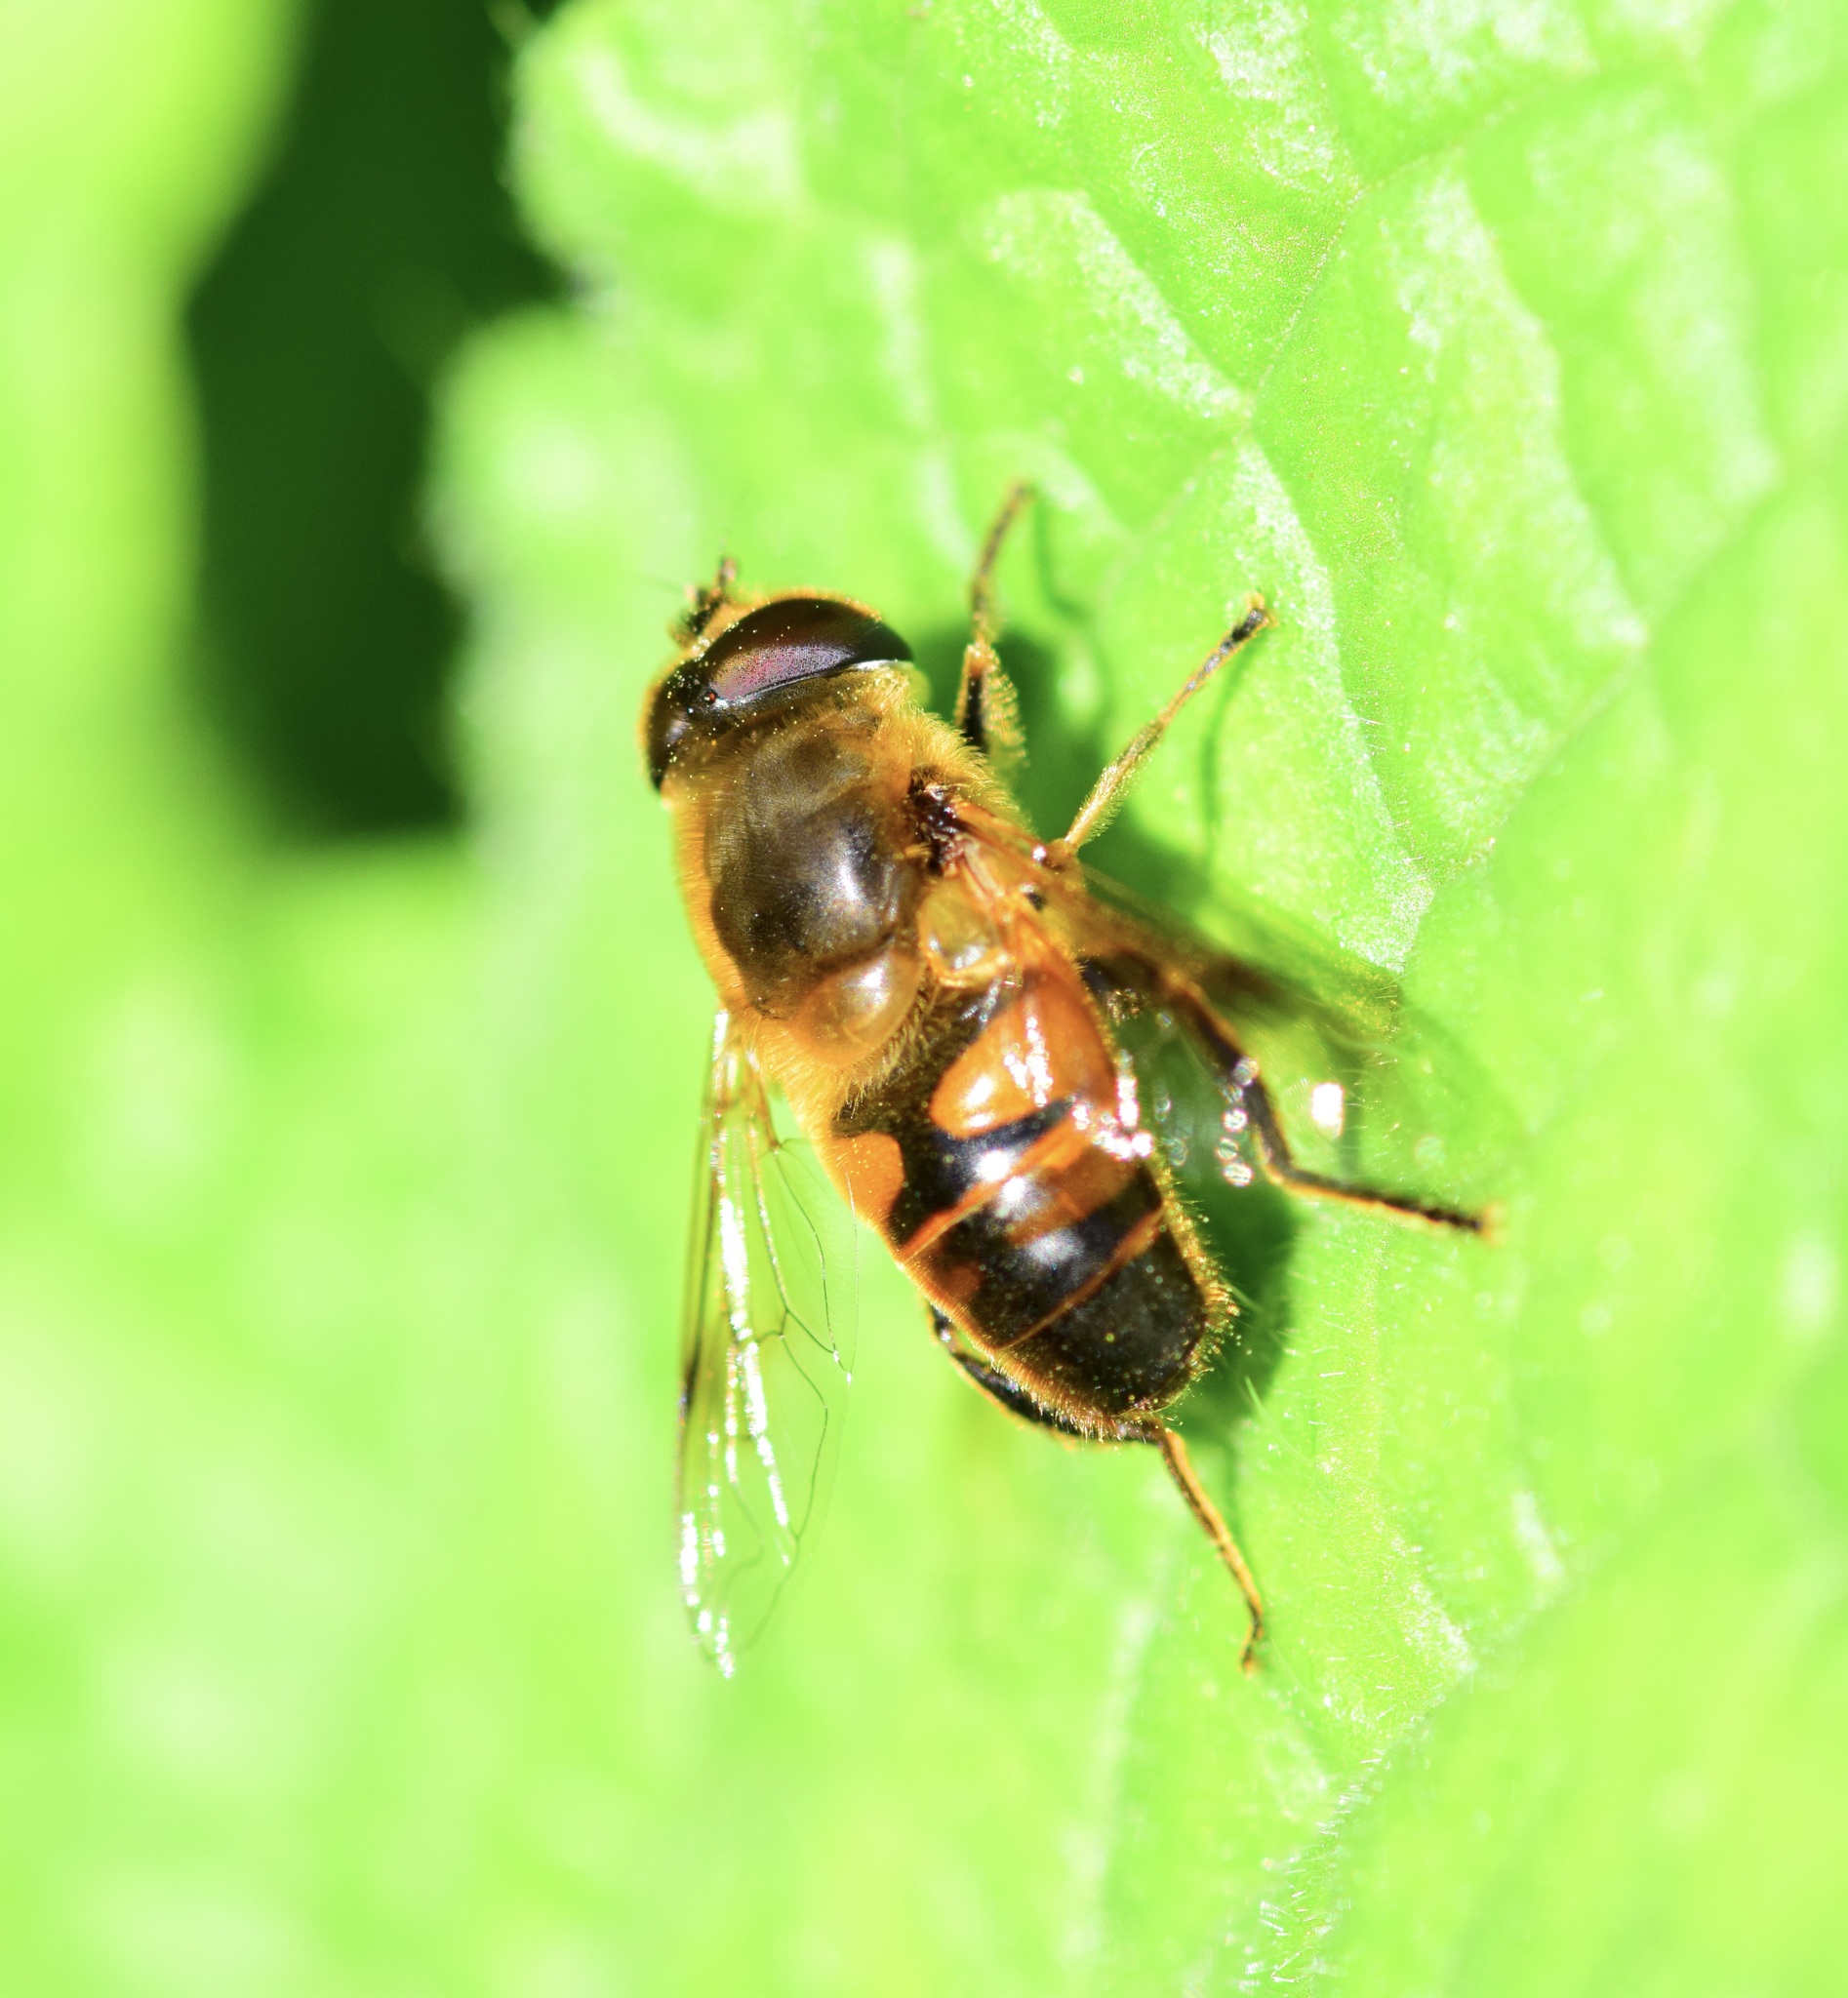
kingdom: Animalia
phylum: Arthropoda
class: Insecta
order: Diptera
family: Syrphidae
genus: Eristalis
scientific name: Eristalis tenax
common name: Drone fly
